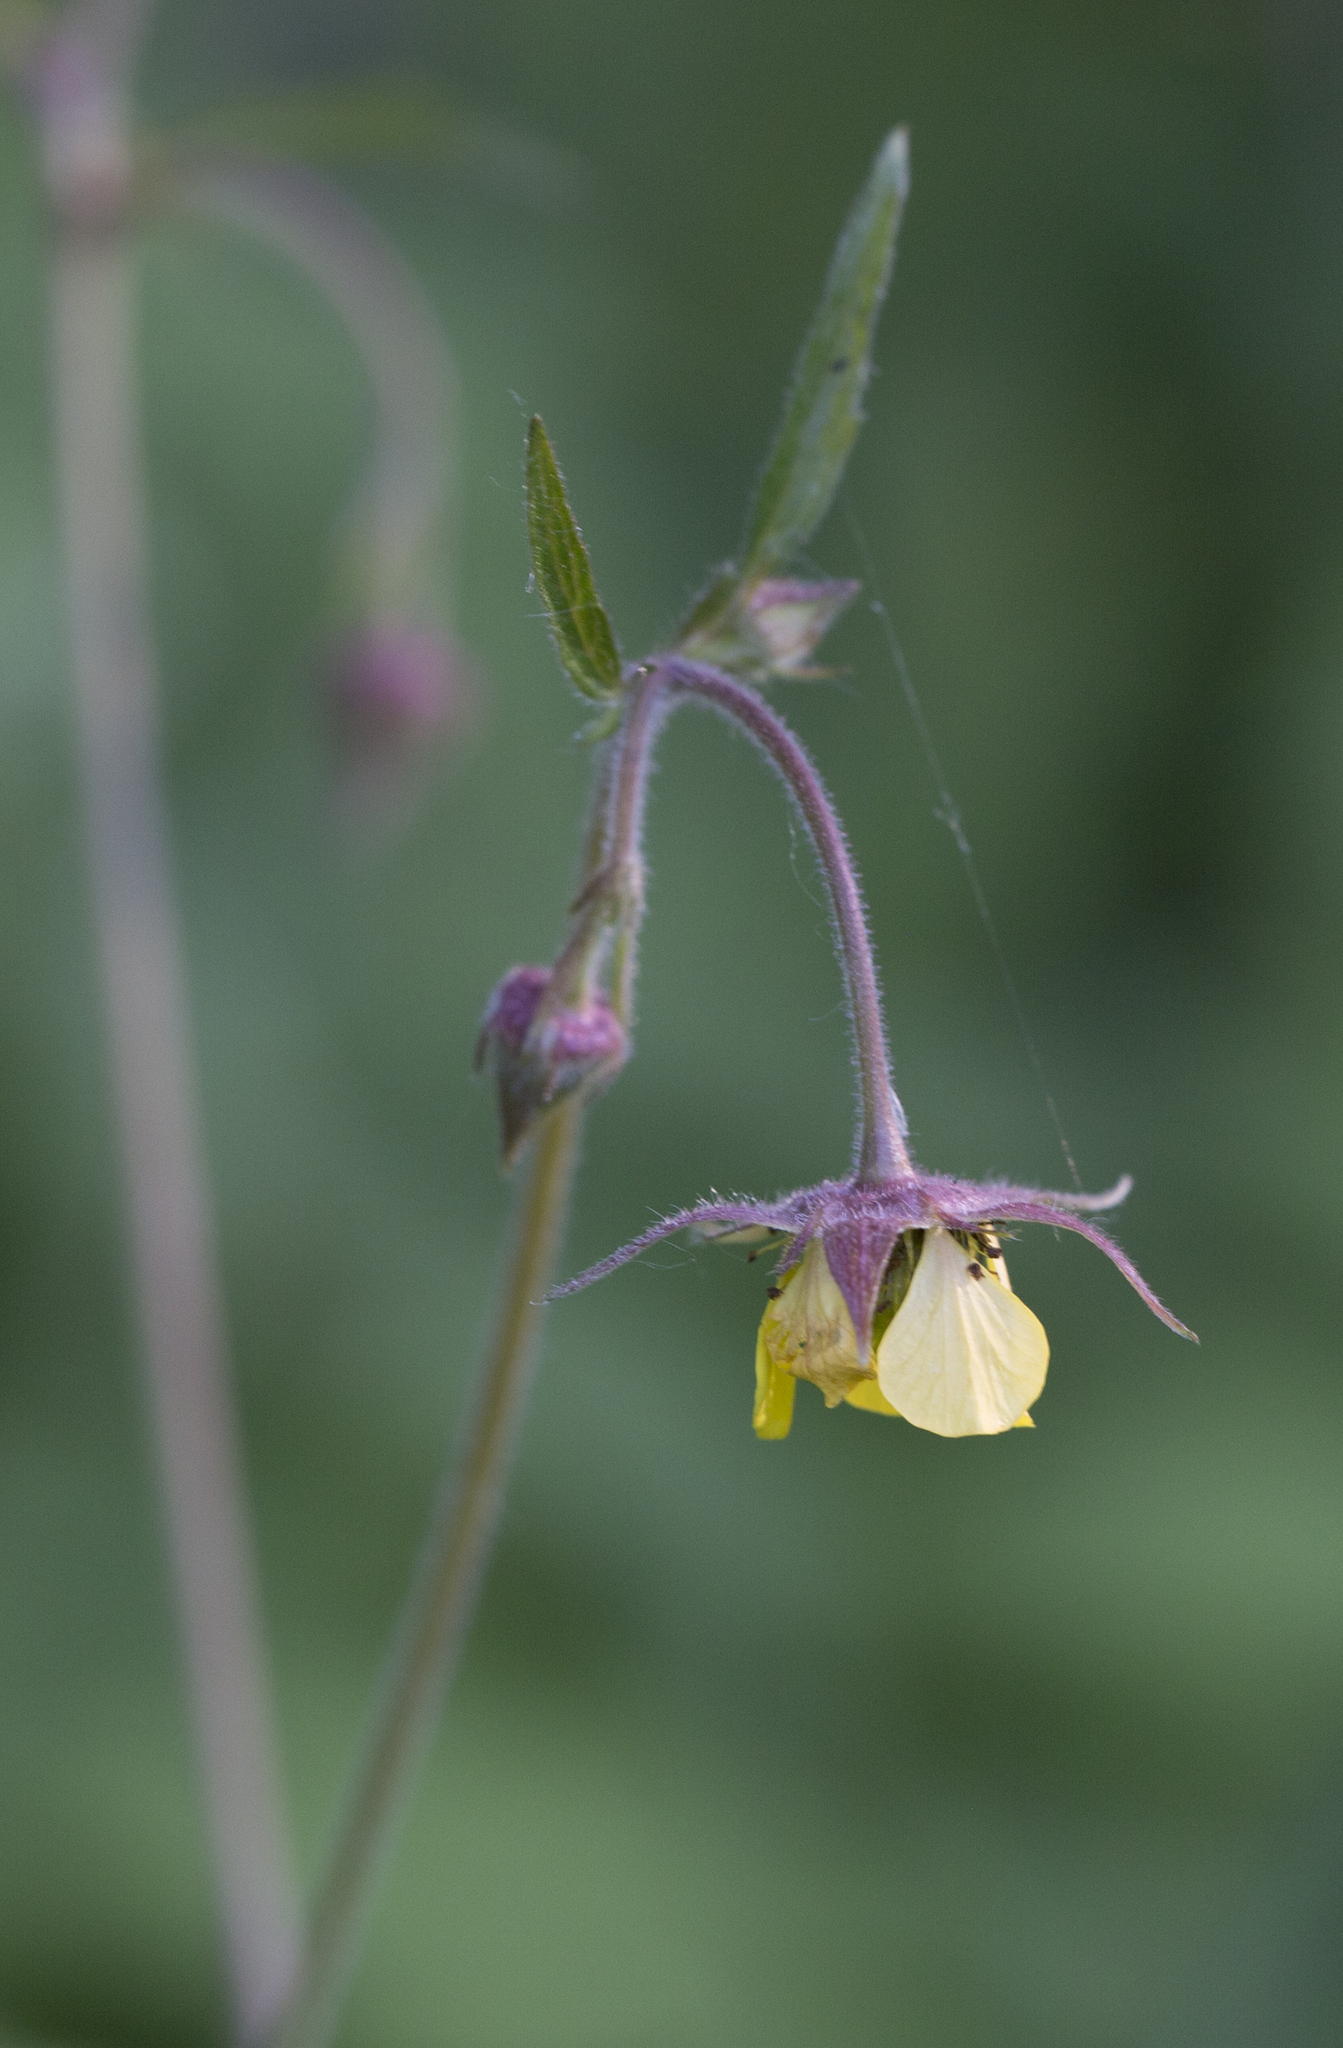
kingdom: Plantae
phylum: Tracheophyta
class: Magnoliopsida
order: Rosales
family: Rosaceae
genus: Geum
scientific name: Geum intermedium
